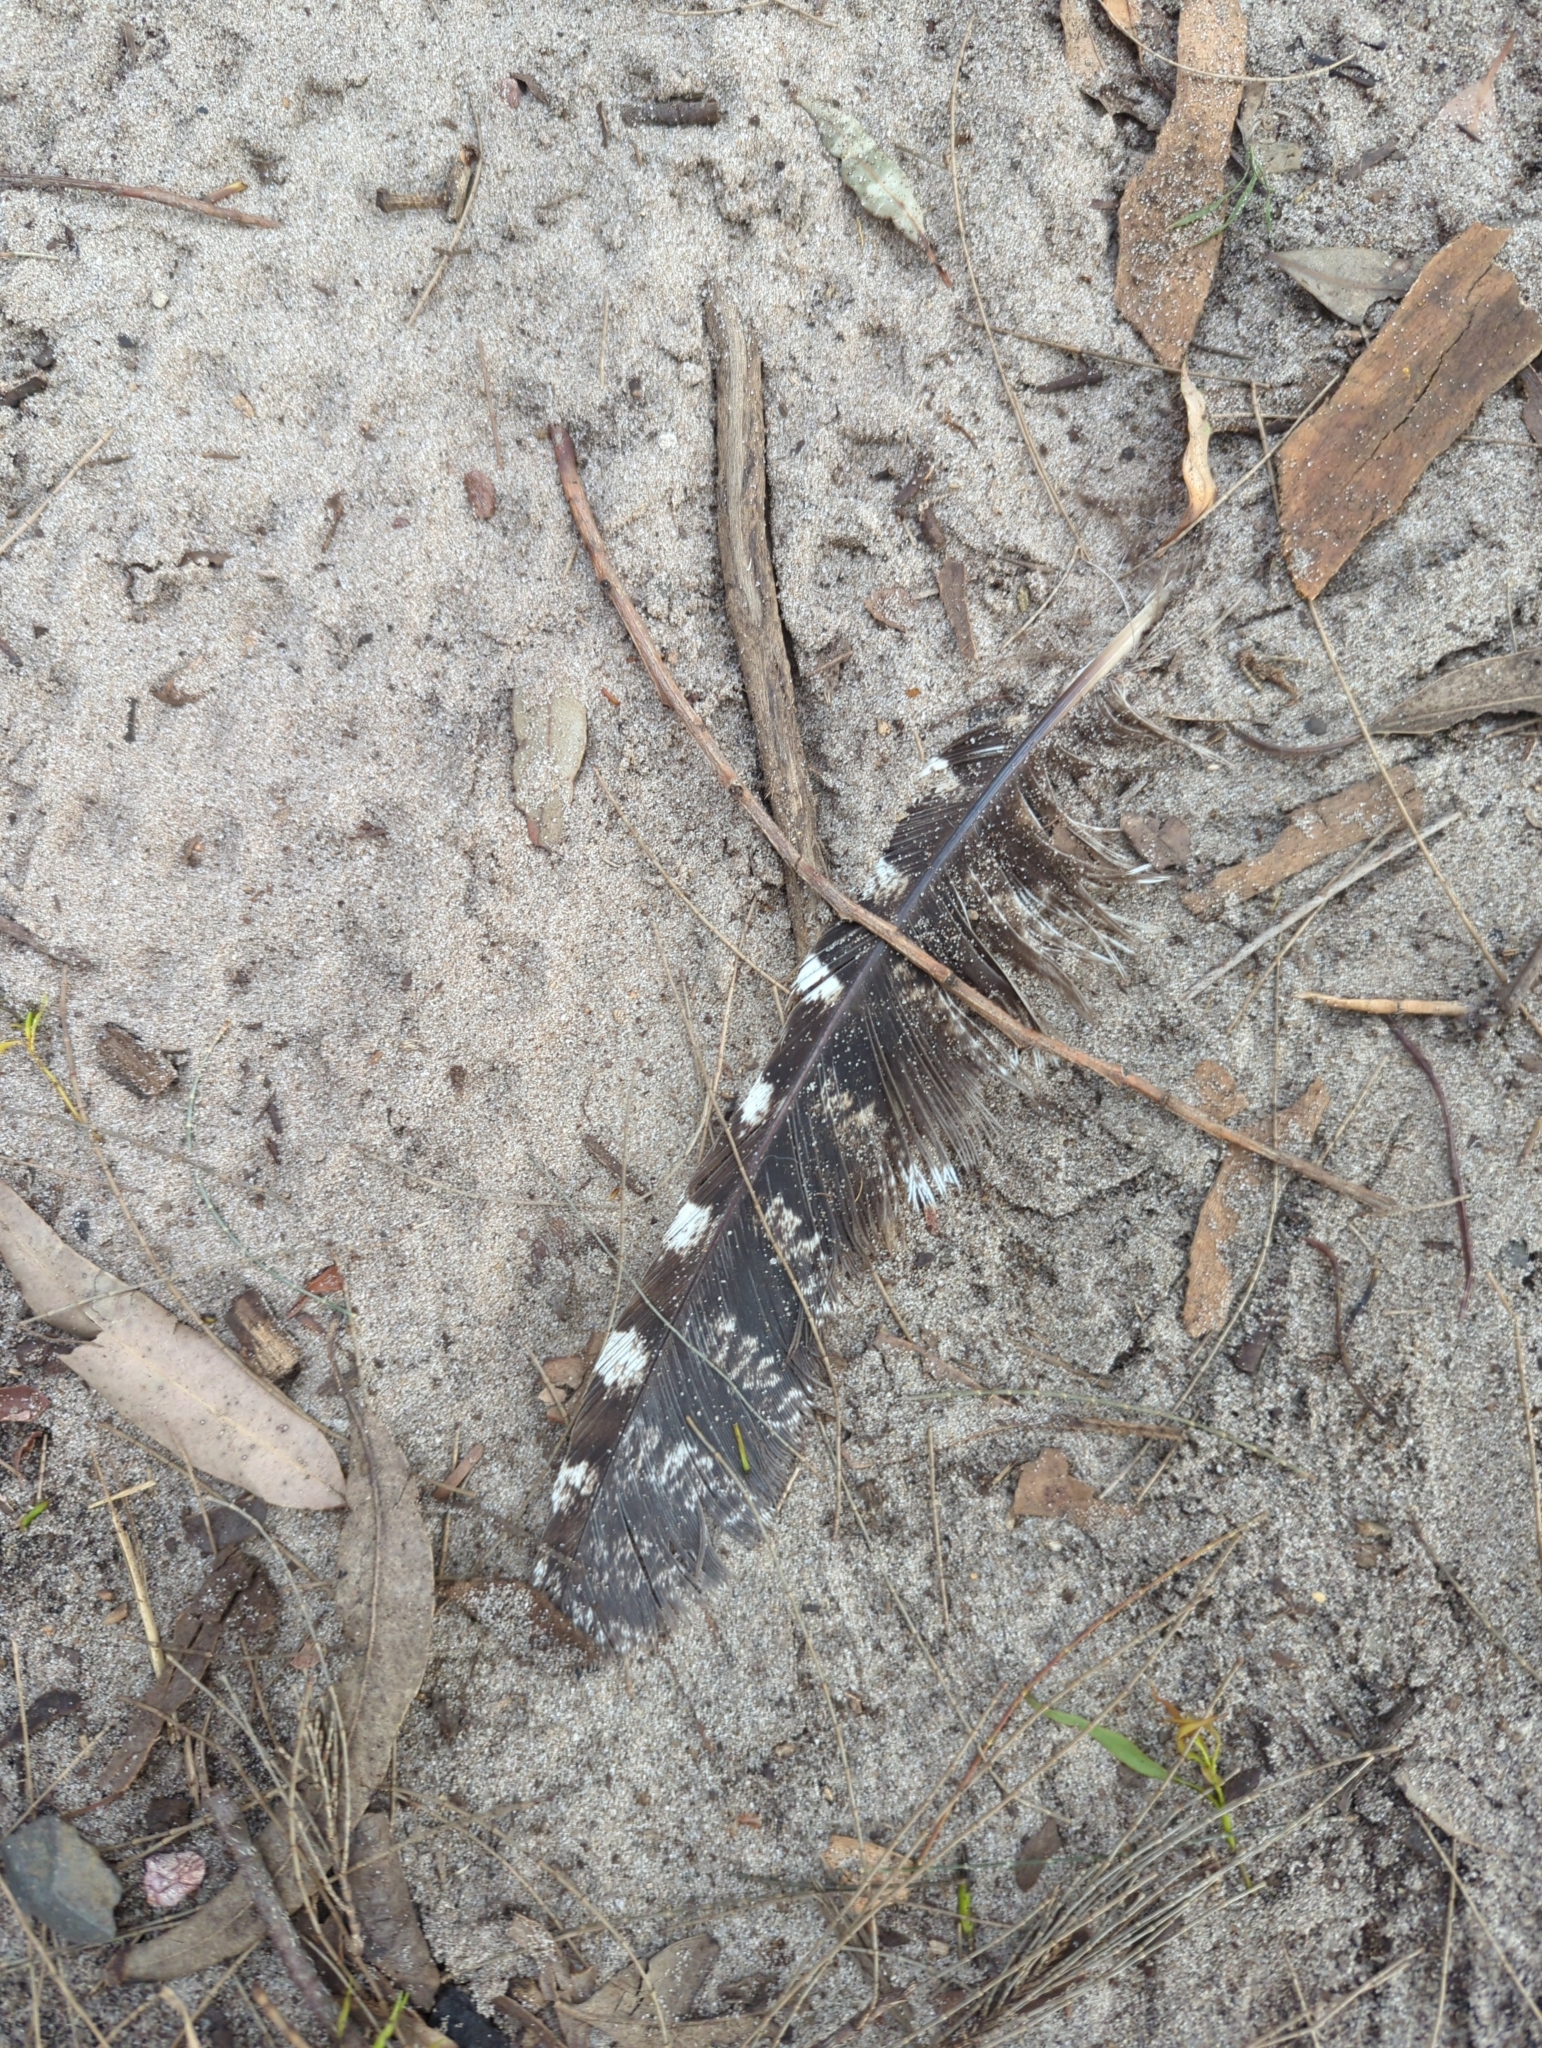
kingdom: Animalia
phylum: Chordata
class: Aves
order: Caprimulgiformes
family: Podargidae
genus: Podargus
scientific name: Podargus strigoides
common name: Tawny frogmouth
